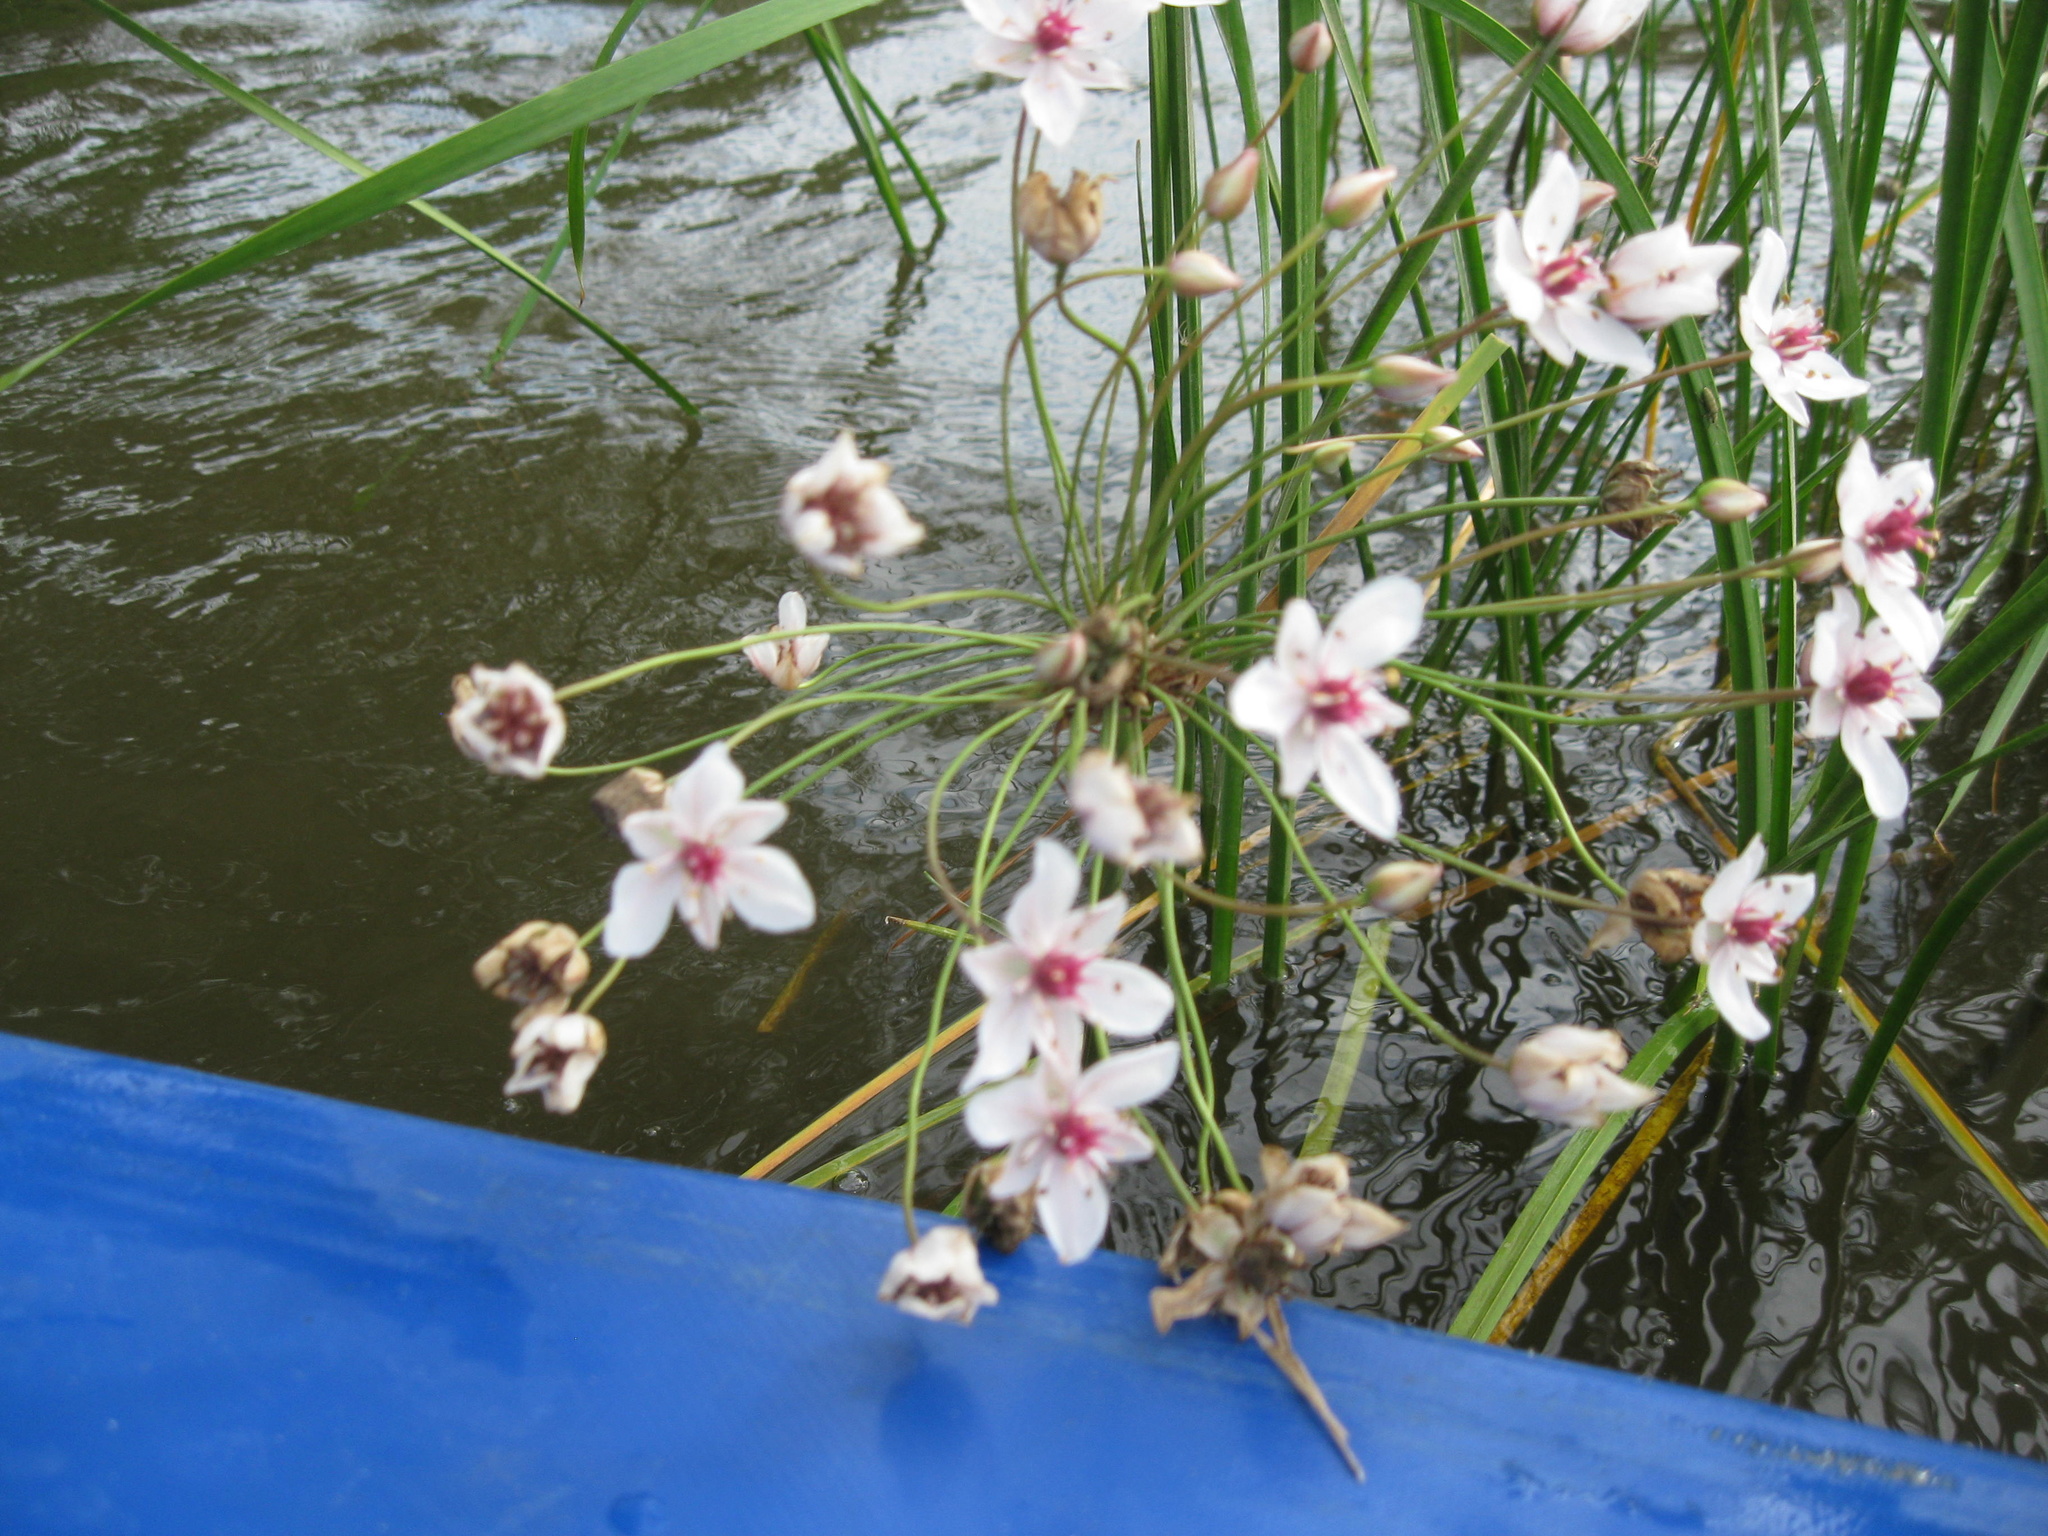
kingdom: Plantae
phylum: Tracheophyta
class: Liliopsida
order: Alismatales
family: Butomaceae
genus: Butomus
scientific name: Butomus umbellatus
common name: Flowering-rush
